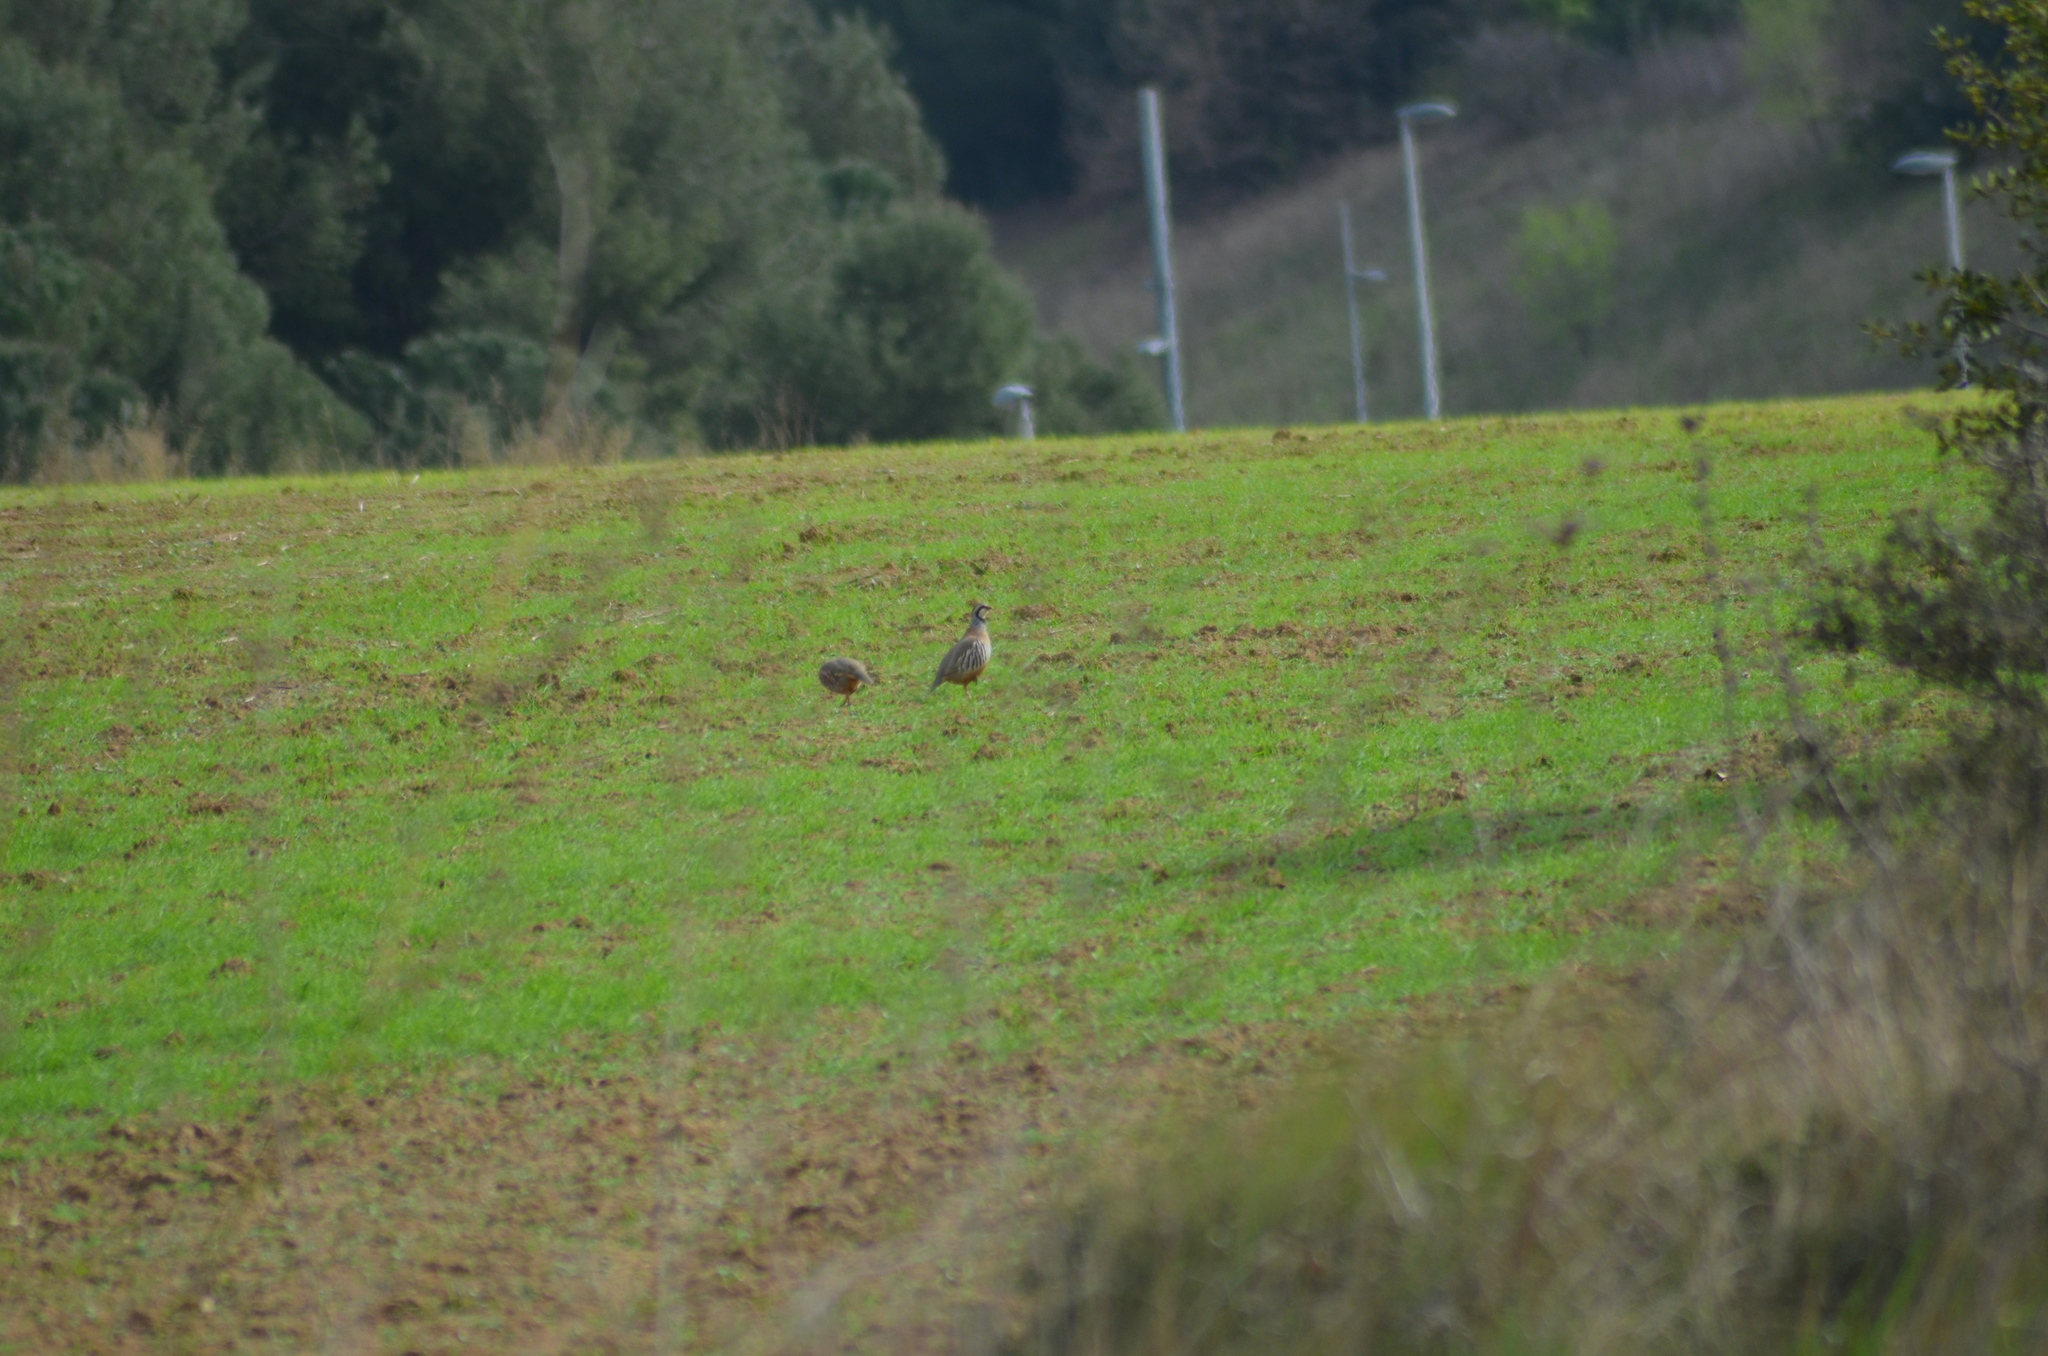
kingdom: Animalia
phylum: Chordata
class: Aves
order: Galliformes
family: Phasianidae
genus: Alectoris
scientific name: Alectoris rufa
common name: Red-legged partridge
